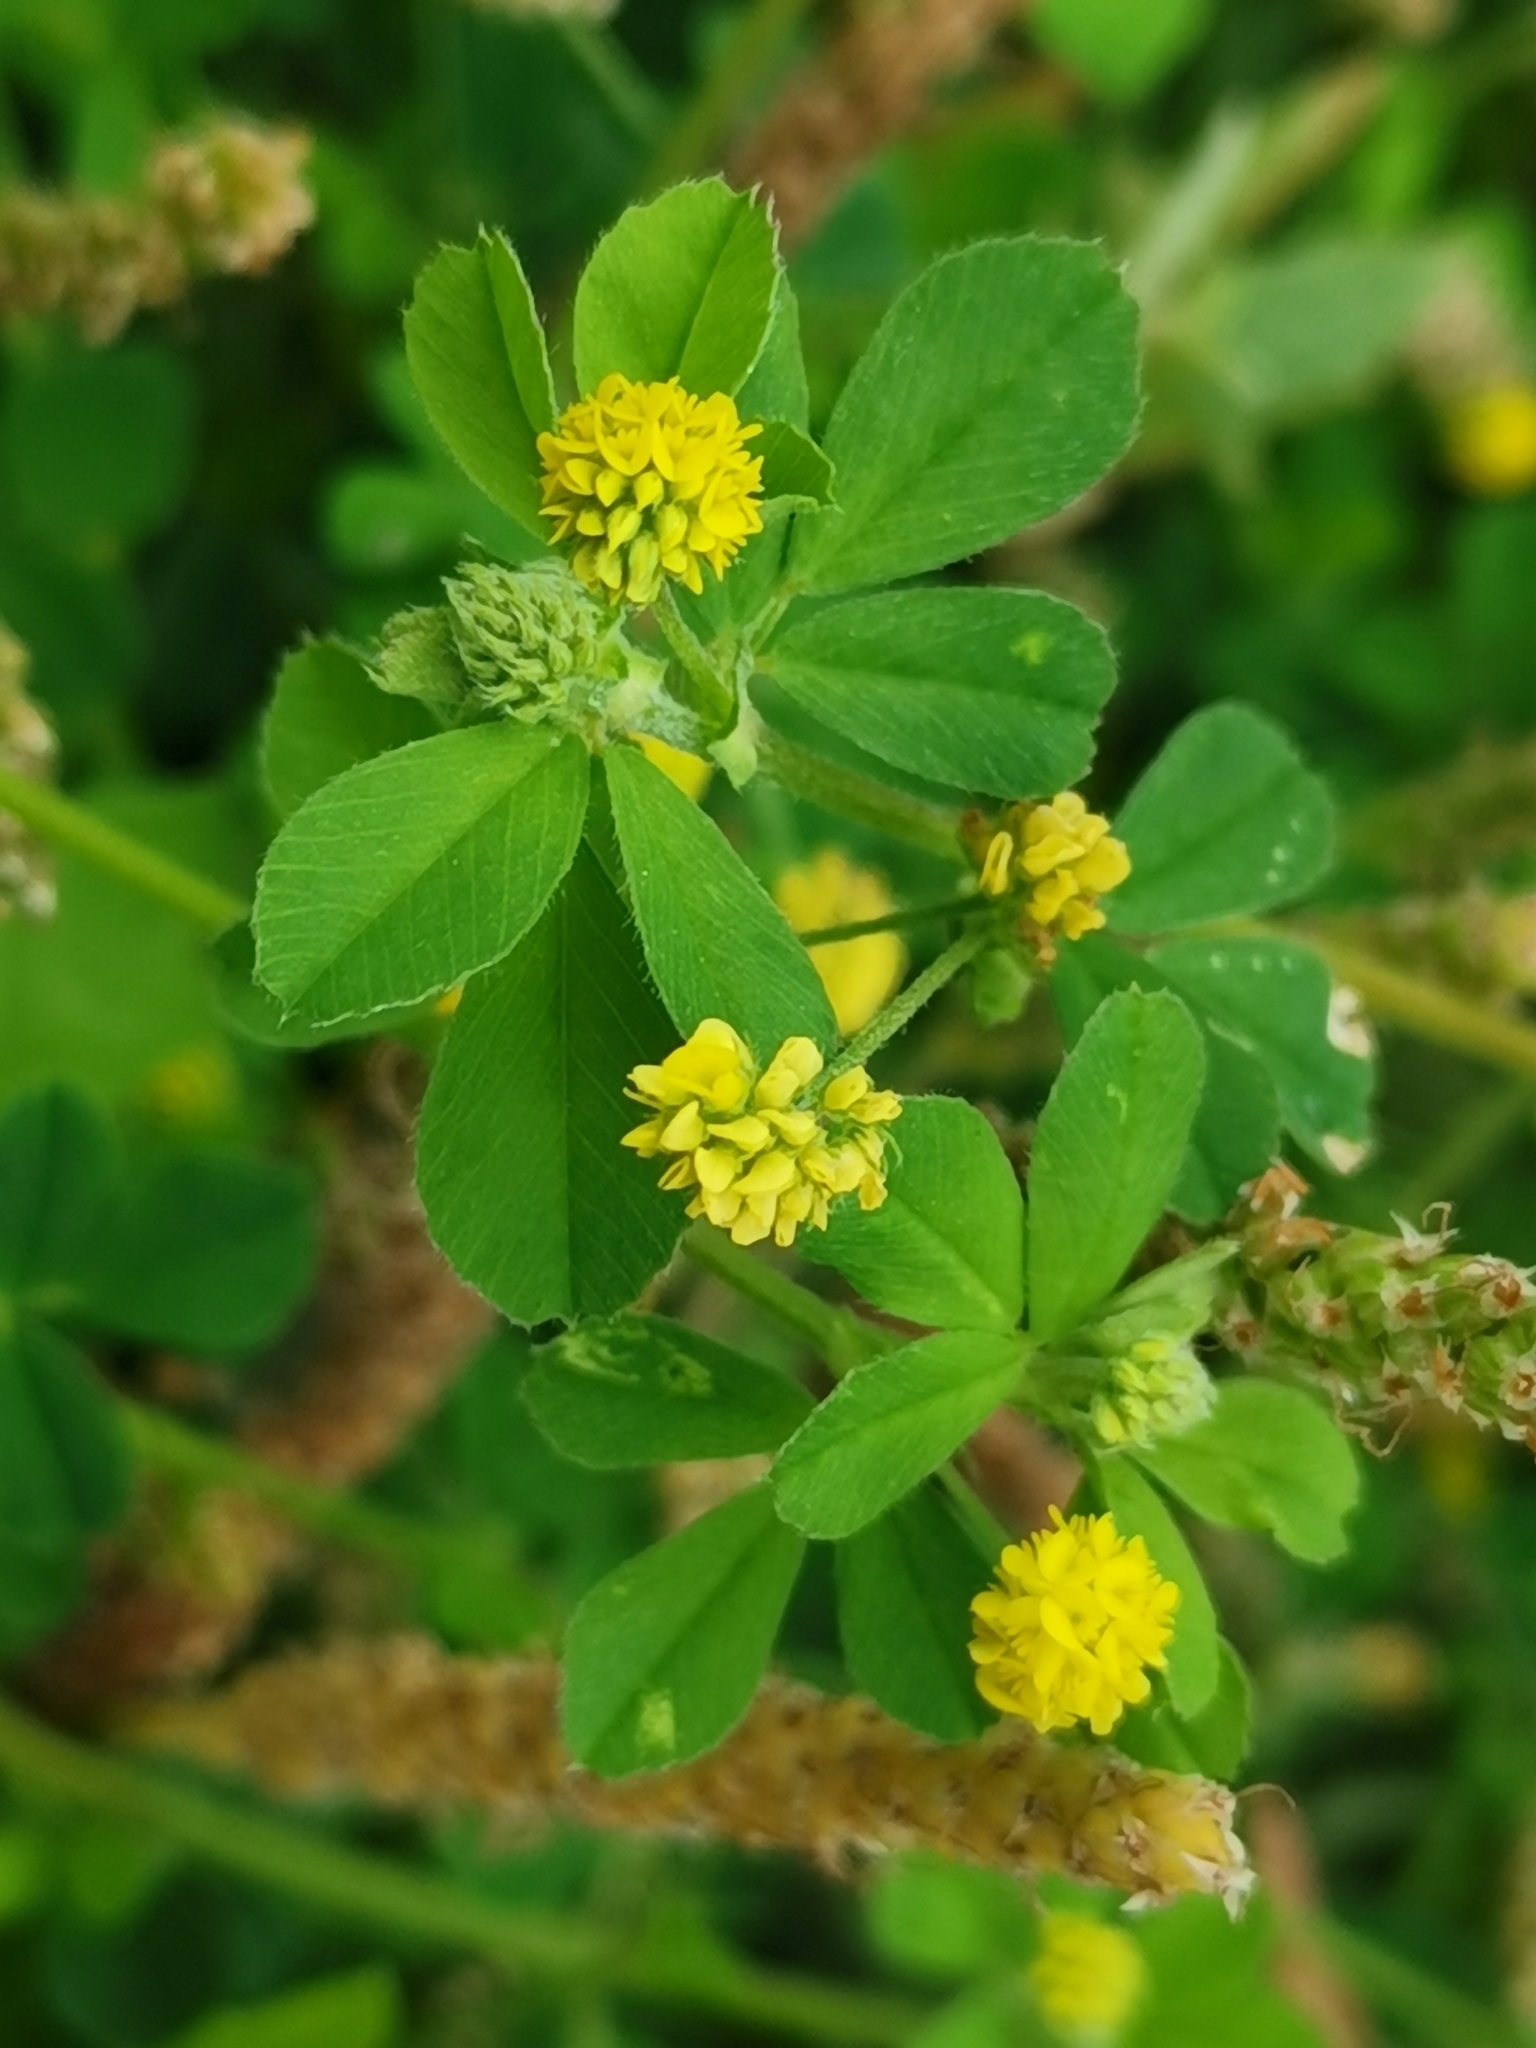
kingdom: Plantae
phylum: Tracheophyta
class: Magnoliopsida
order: Fabales
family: Fabaceae
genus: Medicago
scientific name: Medicago lupulina
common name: Black medick
